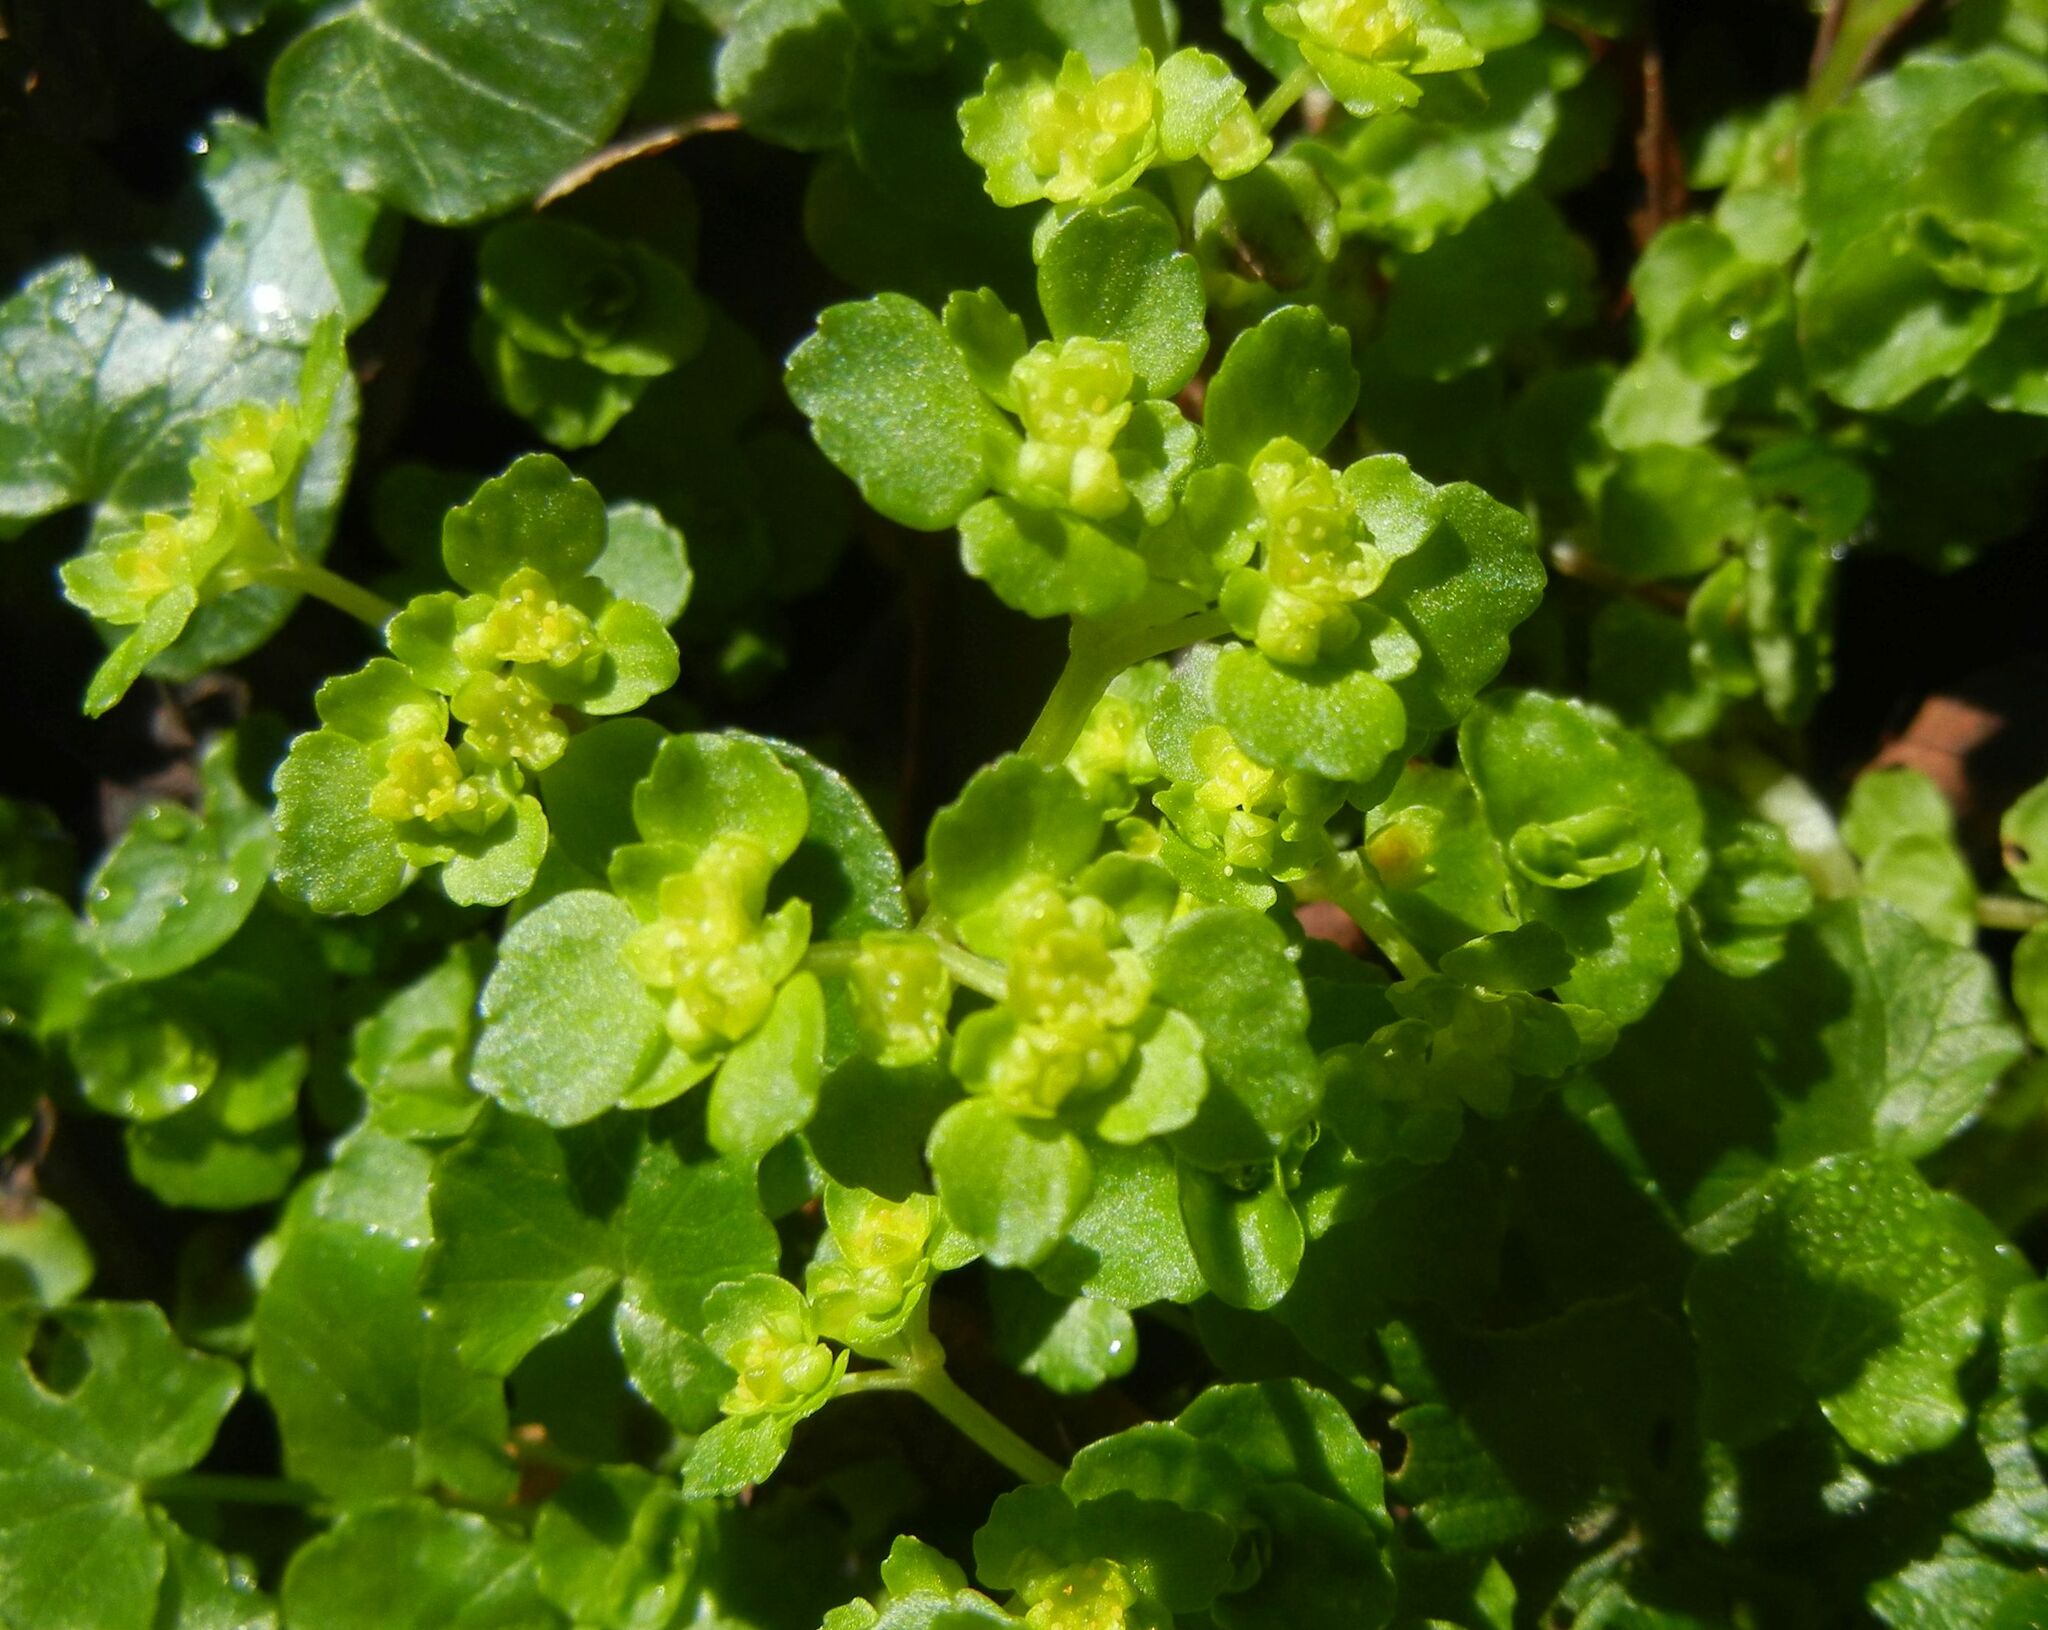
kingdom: Plantae
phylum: Tracheophyta
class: Magnoliopsida
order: Saxifragales
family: Saxifragaceae
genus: Chrysosplenium
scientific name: Chrysosplenium oppositifolium
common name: Opposite-leaved golden-saxifrage
